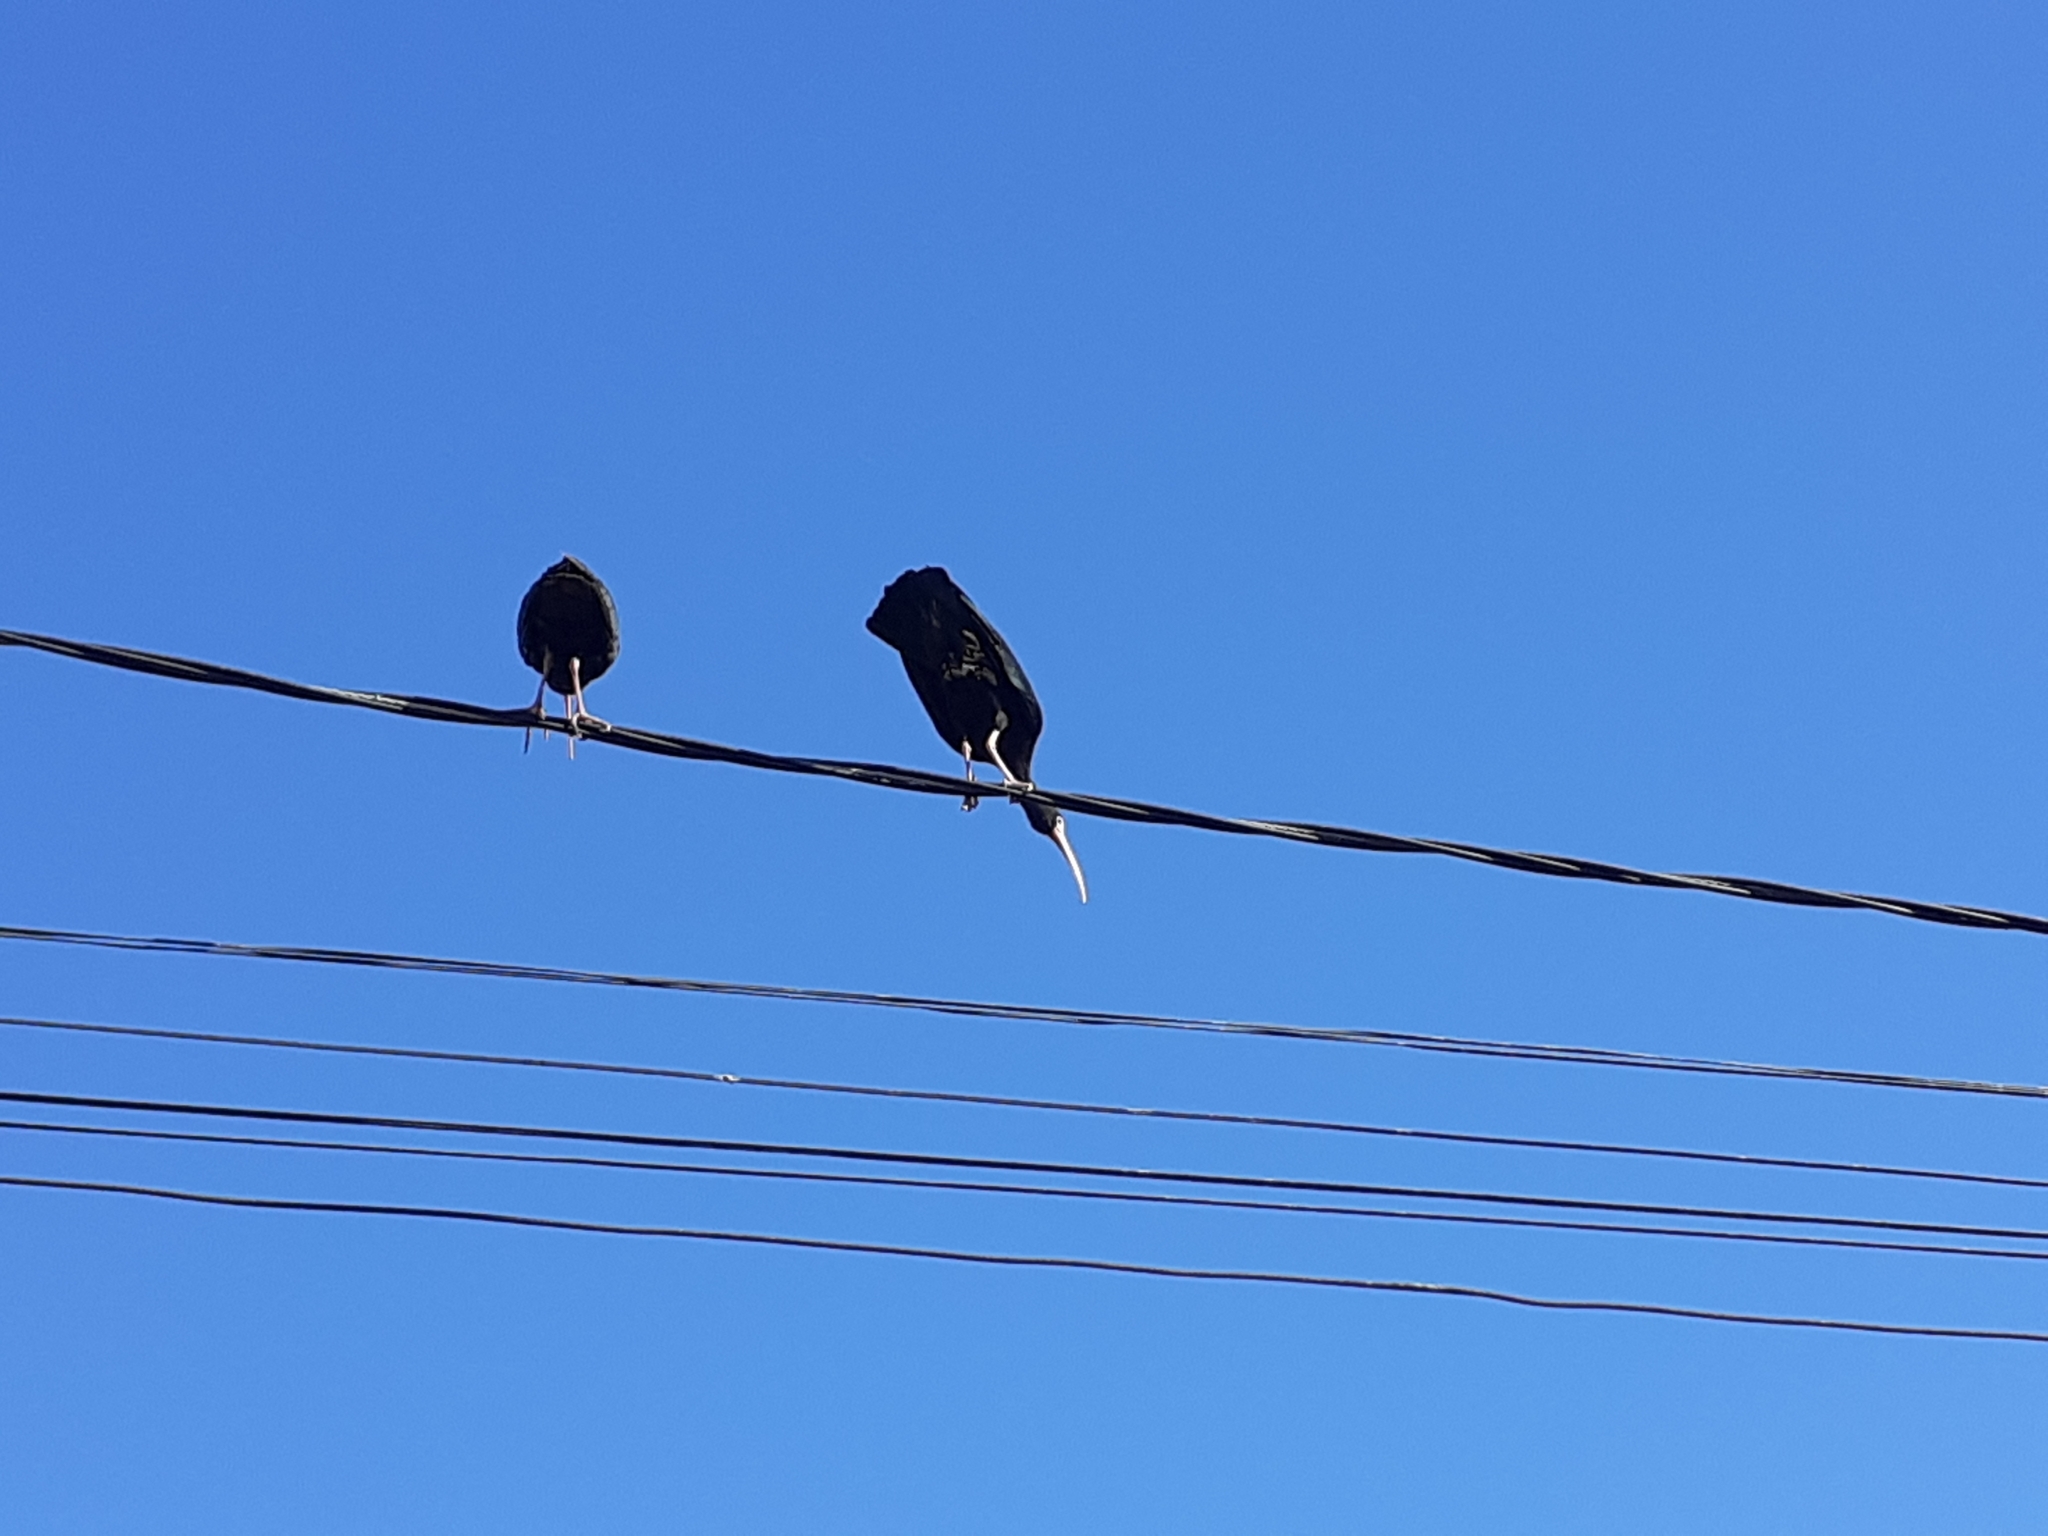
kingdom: Animalia
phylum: Chordata
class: Aves
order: Pelecaniformes
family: Threskiornithidae
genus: Phimosus
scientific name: Phimosus infuscatus
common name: Bare-faced ibis
